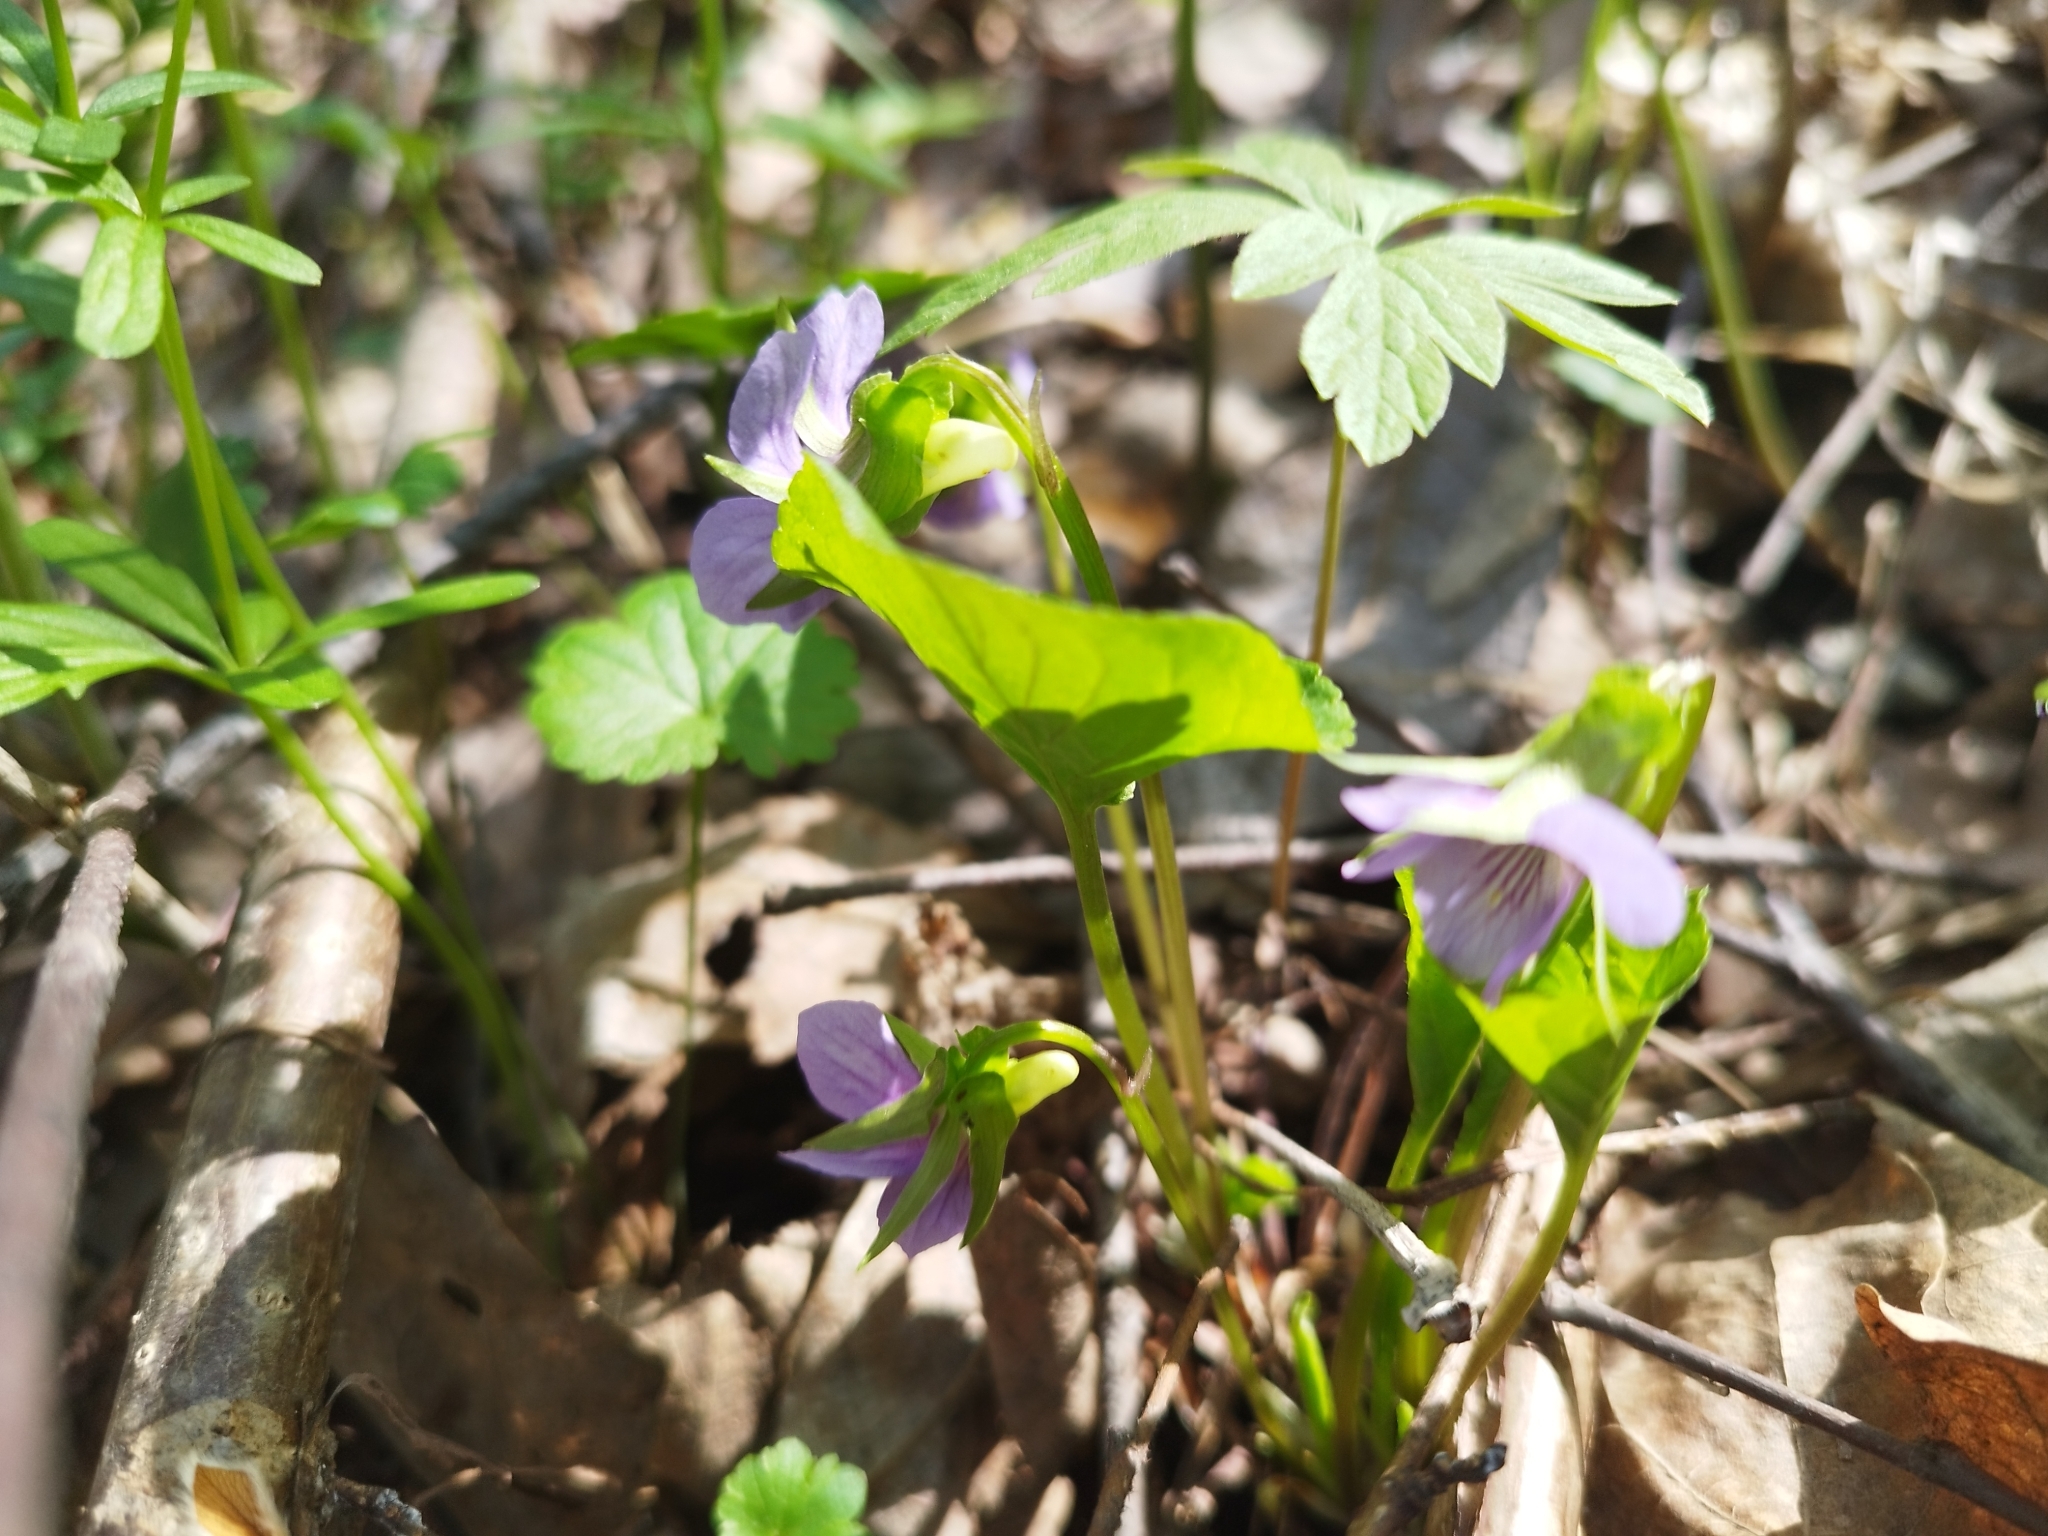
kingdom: Plantae
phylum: Tracheophyta
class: Magnoliopsida
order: Malpighiales
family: Violaceae
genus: Viola
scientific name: Viola mirabilis
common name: Wonder violet
